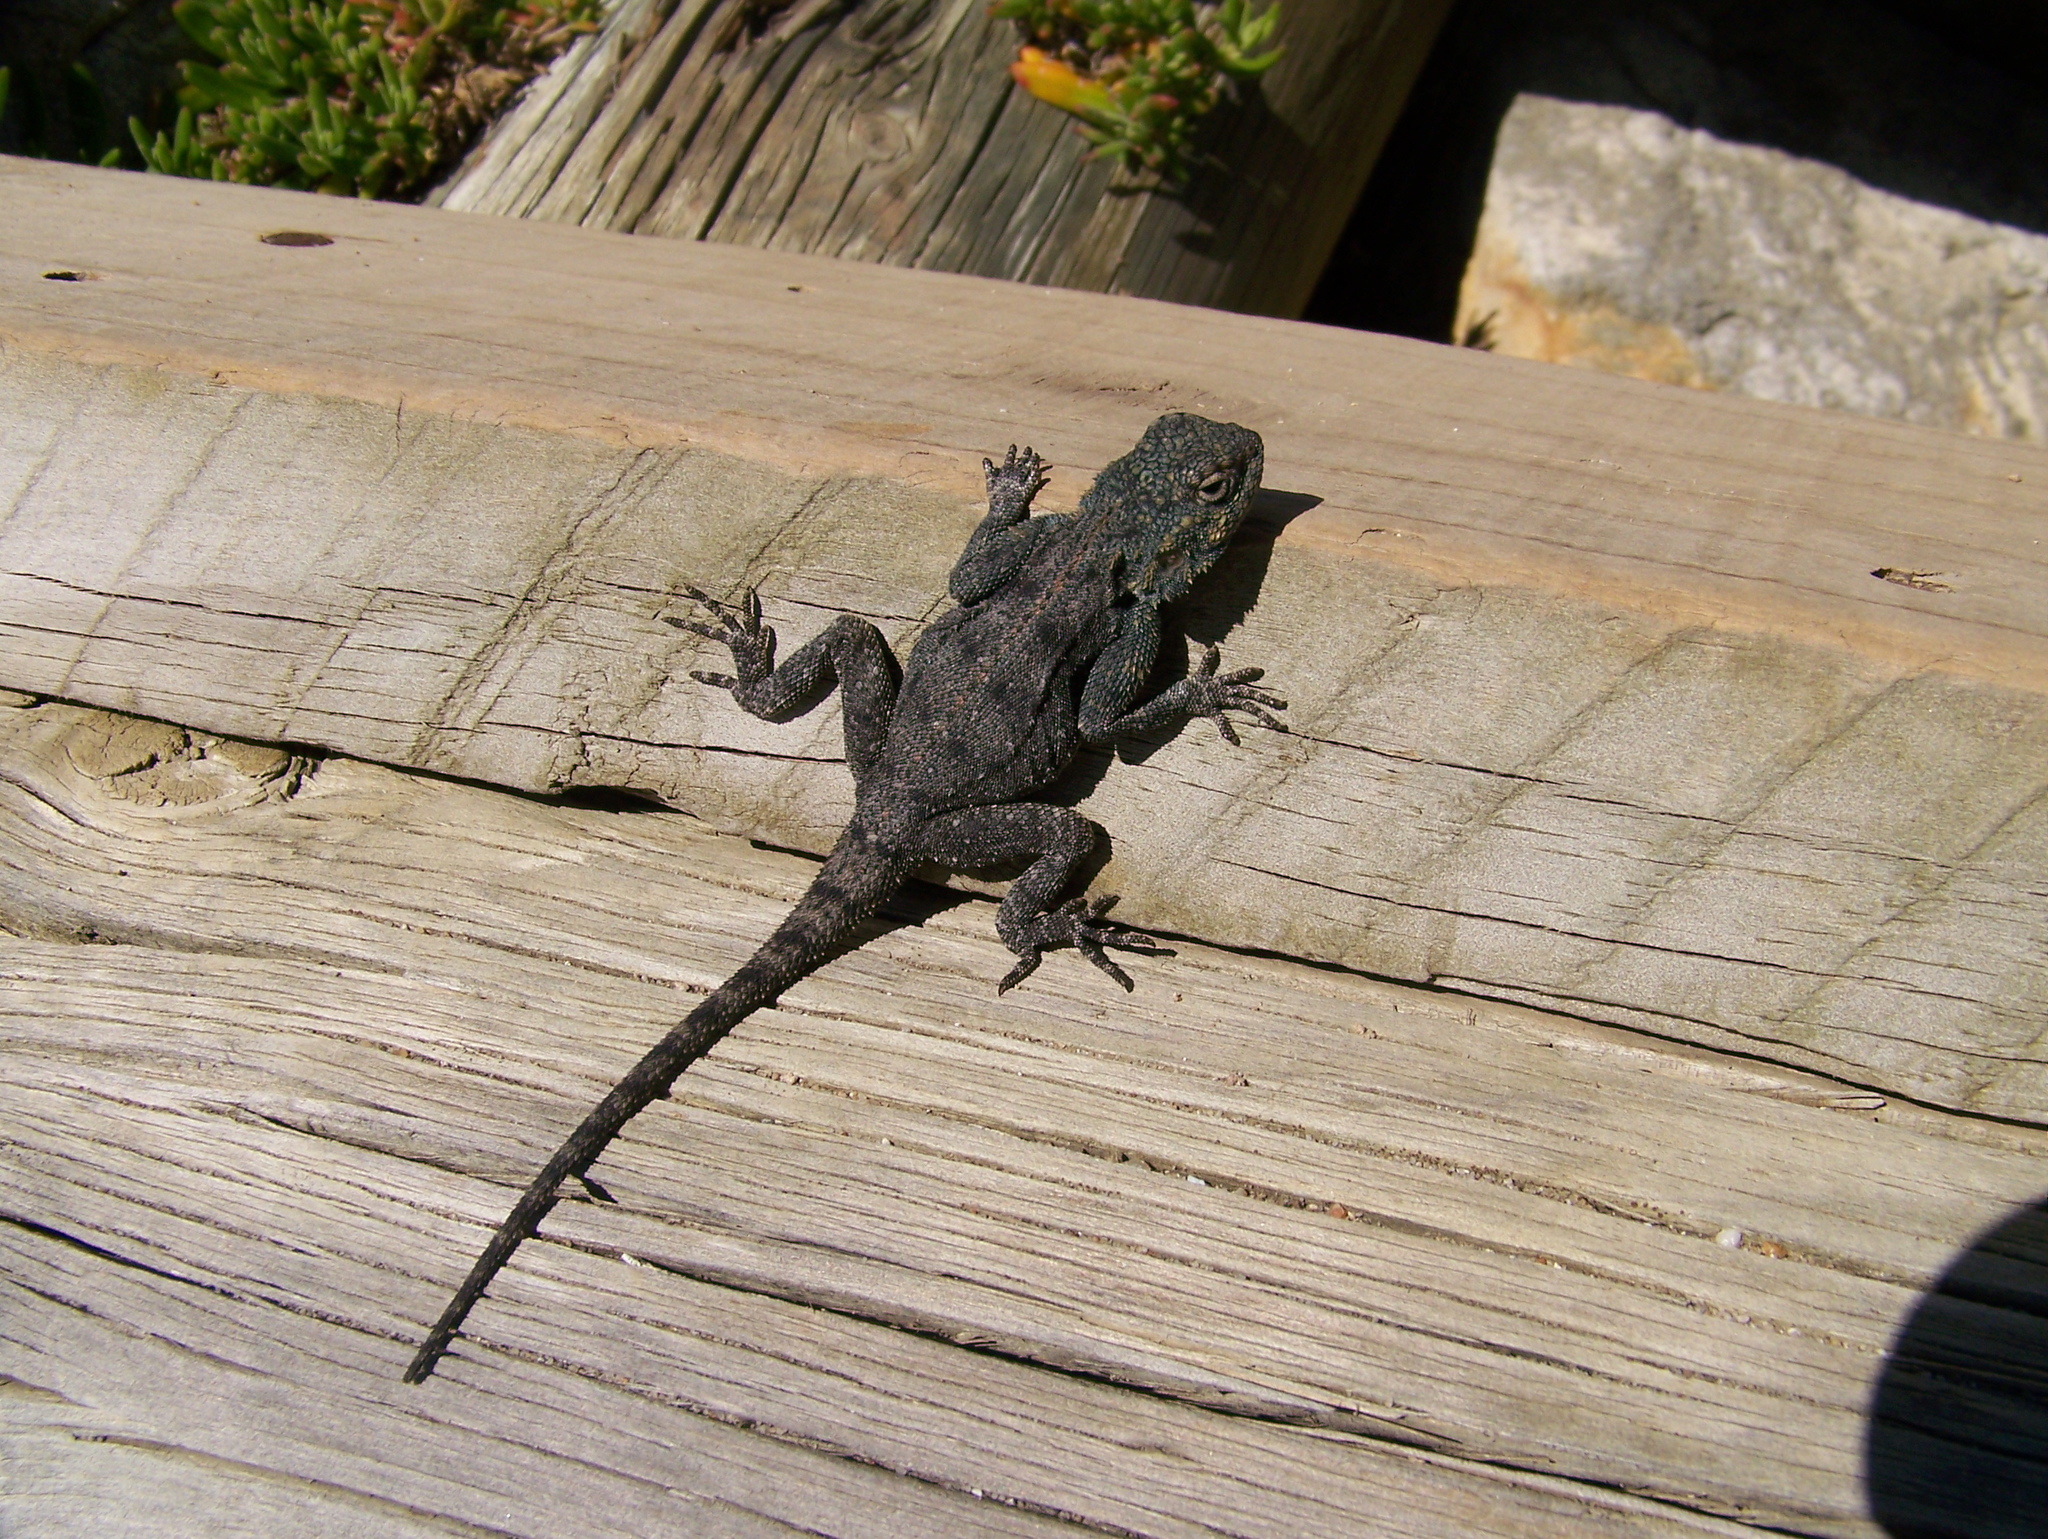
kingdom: Animalia
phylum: Chordata
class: Squamata
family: Agamidae
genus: Agama
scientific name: Agama atra
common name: Southern african rock agama
